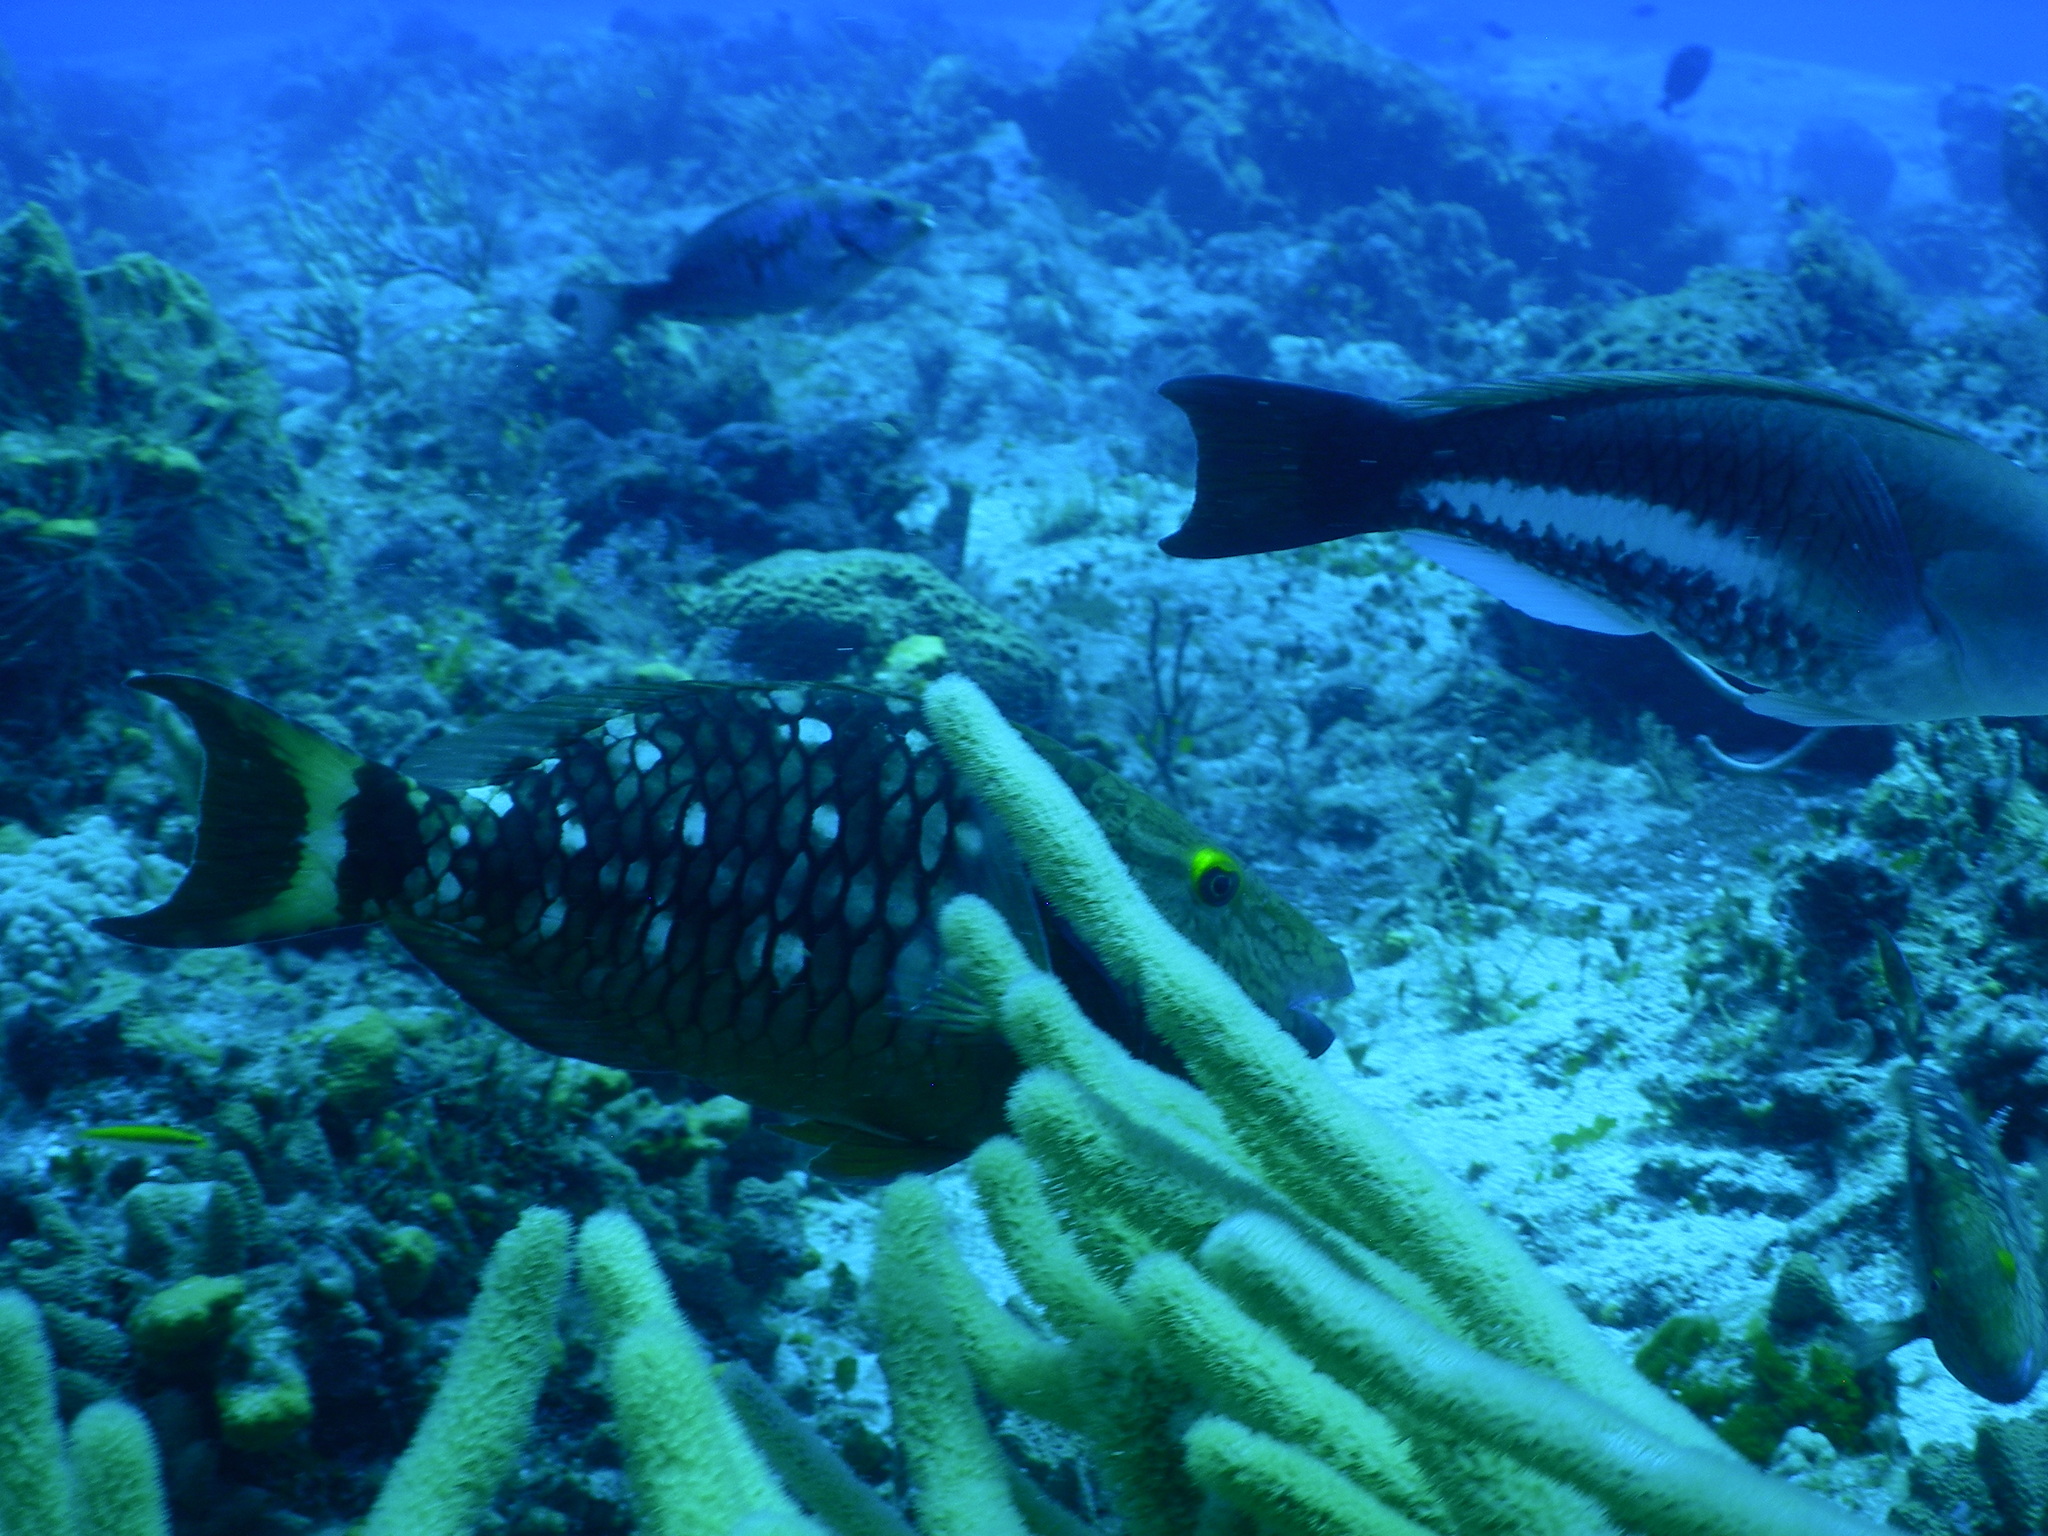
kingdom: Animalia
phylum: Chordata
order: Perciformes
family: Scaridae
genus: Scarus
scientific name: Scarus vetula
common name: Queen parrotfish
